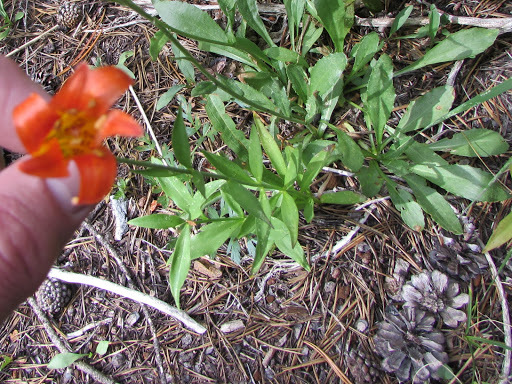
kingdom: Plantae
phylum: Tracheophyta
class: Liliopsida
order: Liliales
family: Liliaceae
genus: Lilium
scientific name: Lilium parvum
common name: Alpine lily
